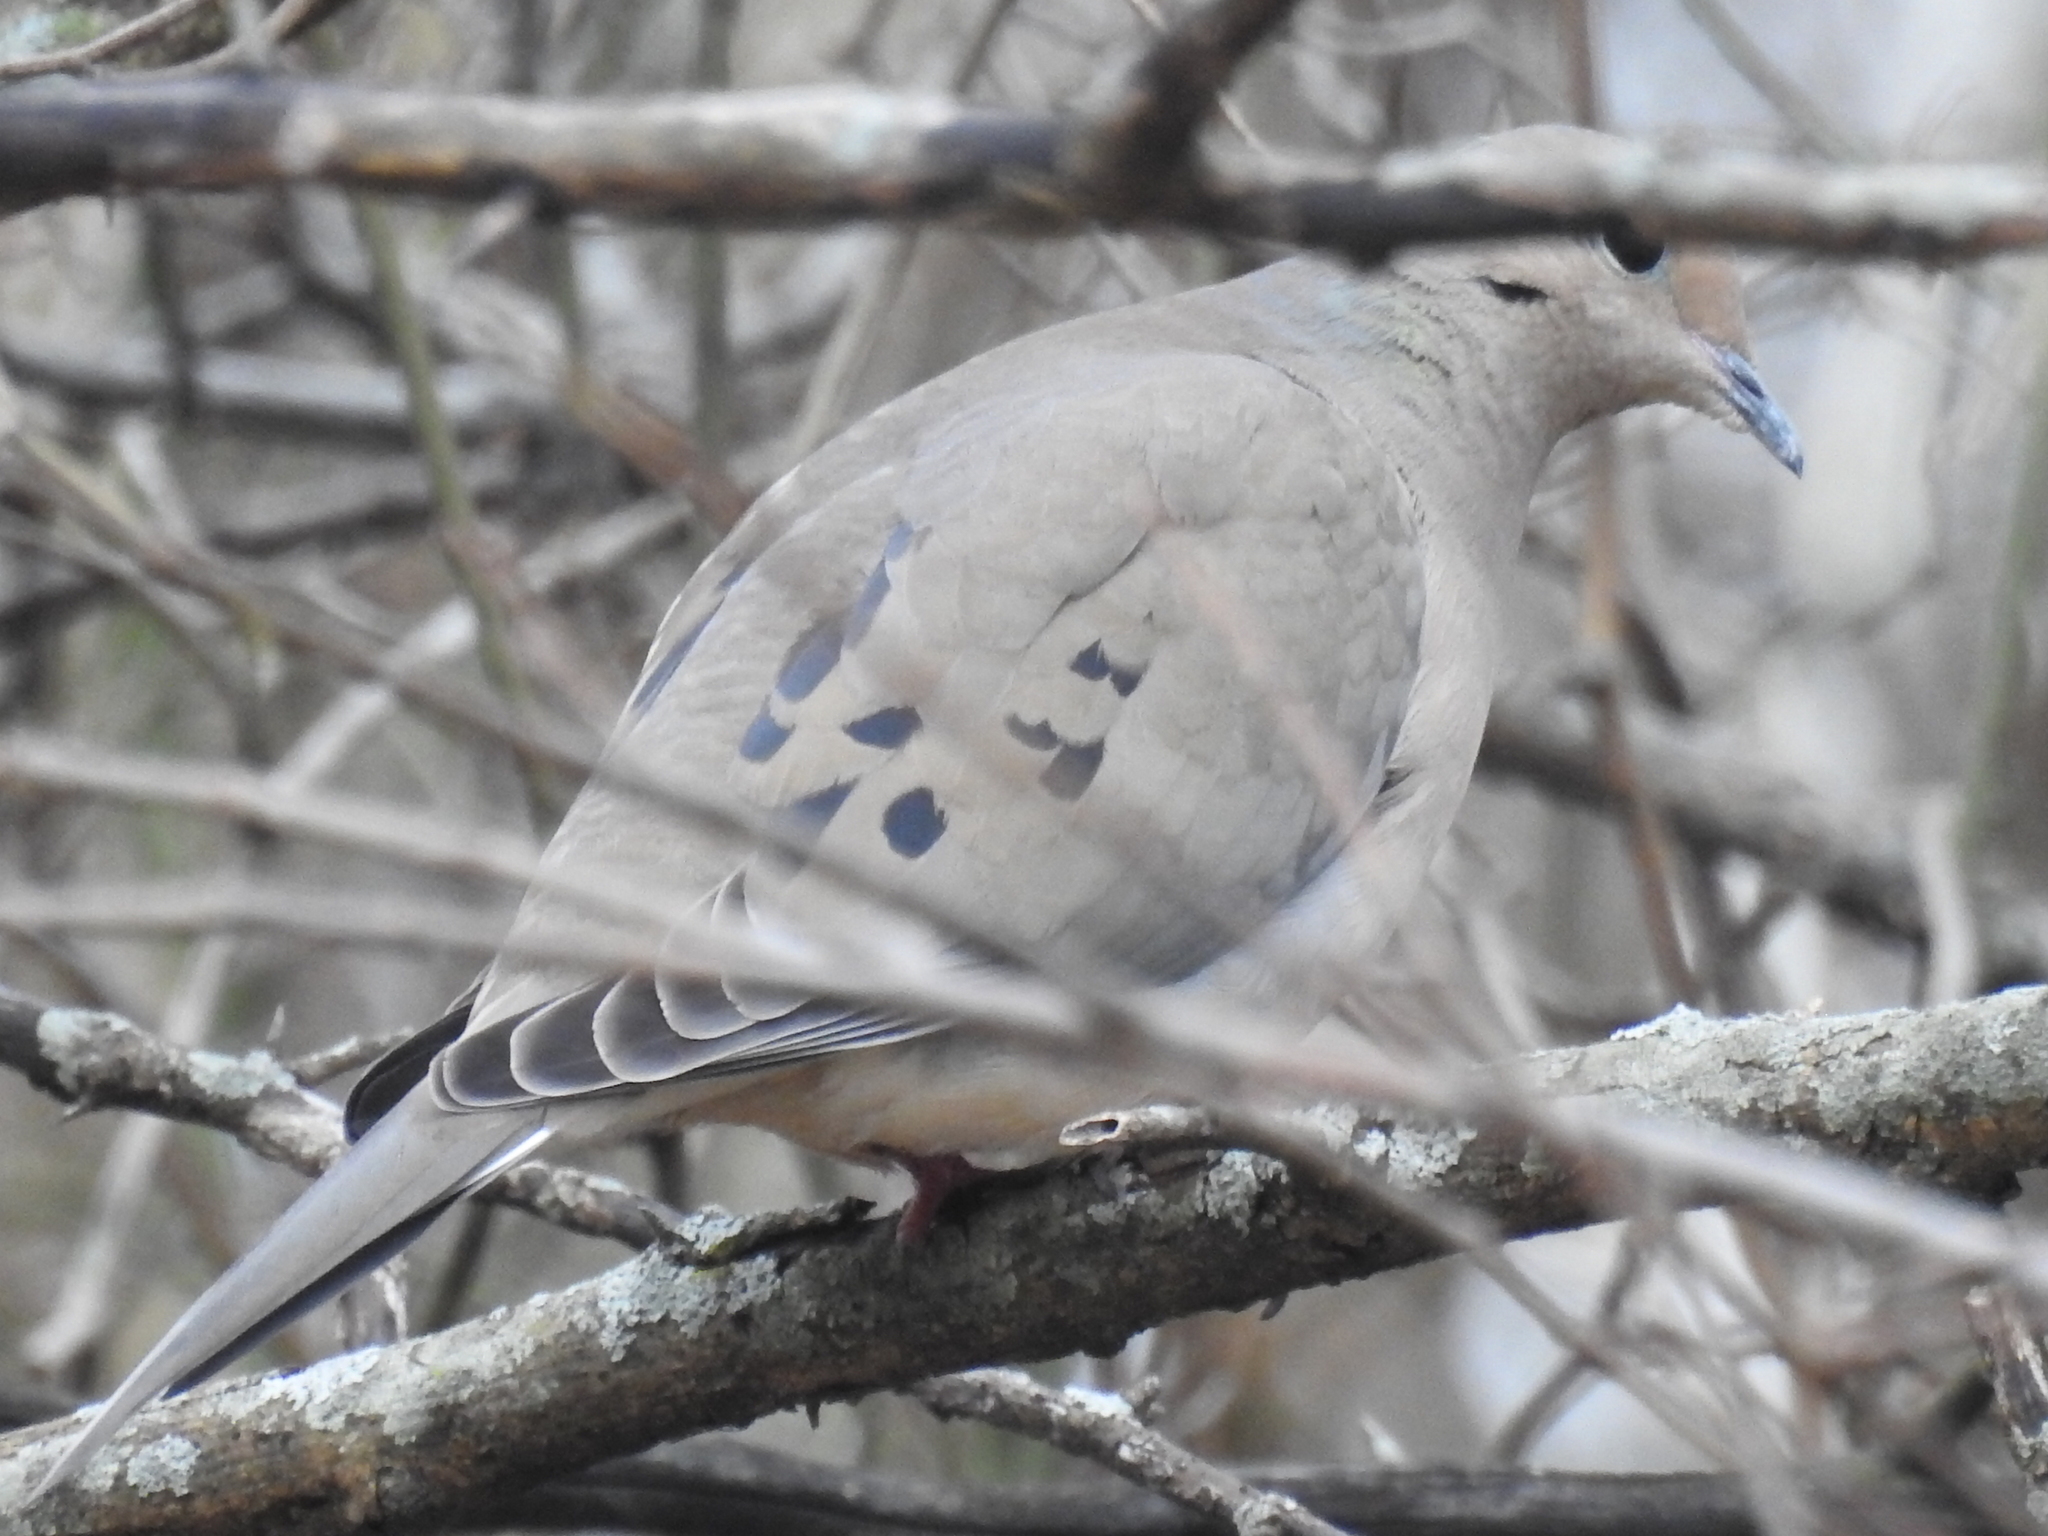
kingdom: Animalia
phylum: Chordata
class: Aves
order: Columbiformes
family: Columbidae
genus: Zenaida
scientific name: Zenaida macroura
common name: Mourning dove
